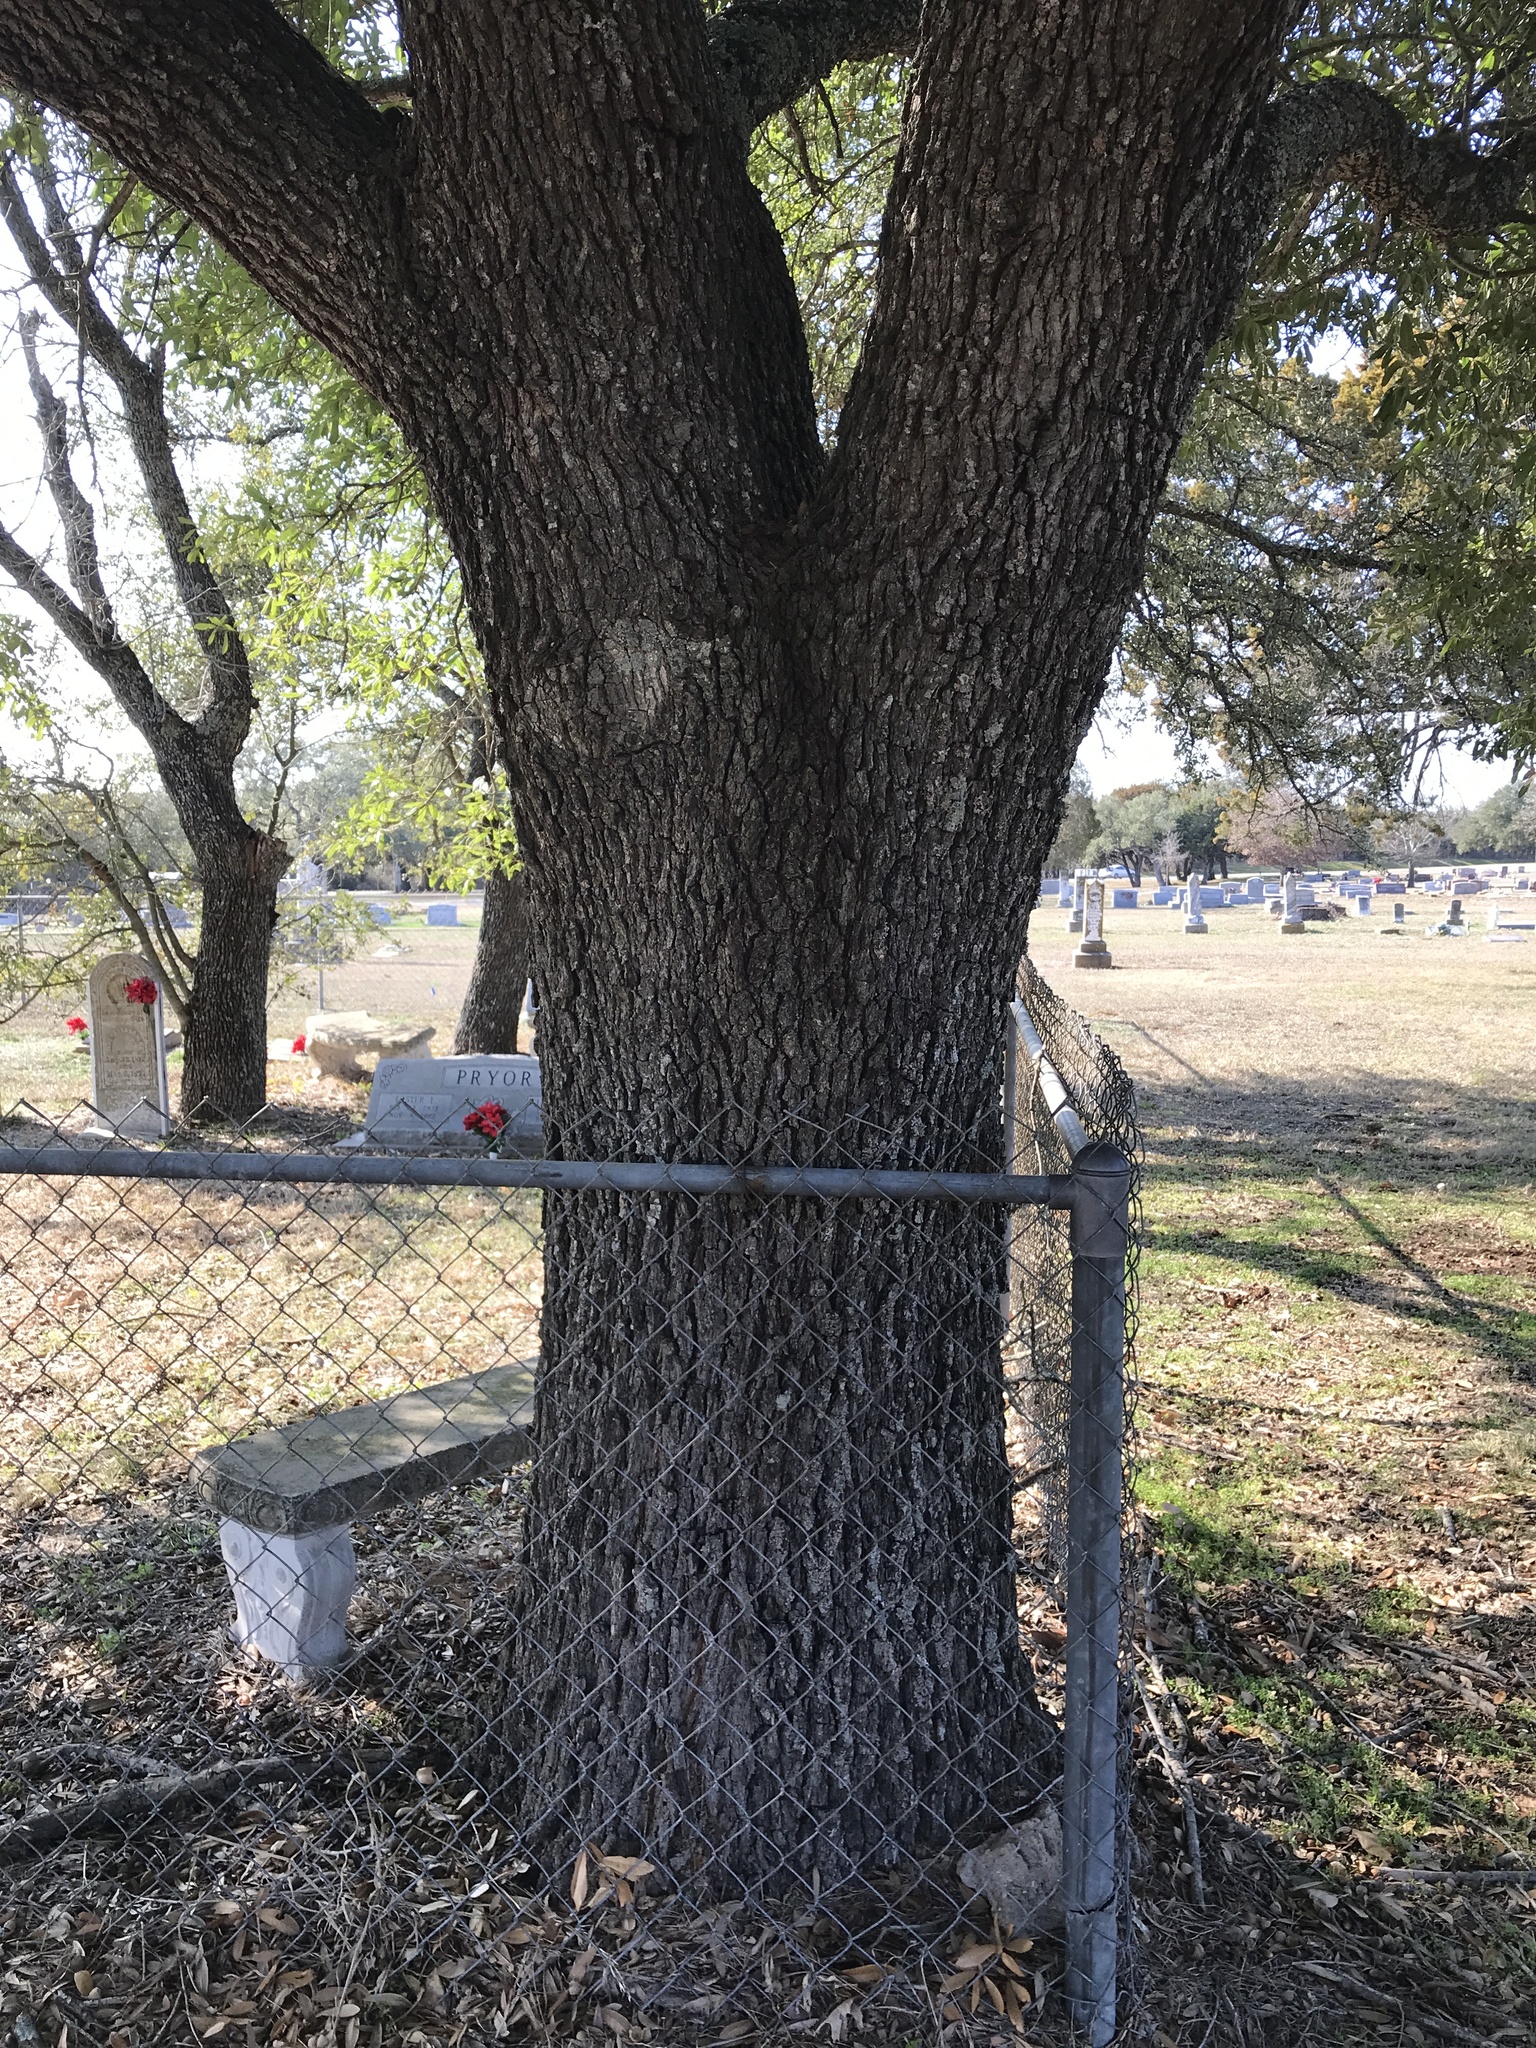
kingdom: Plantae
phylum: Tracheophyta
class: Magnoliopsida
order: Fagales
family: Fagaceae
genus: Quercus
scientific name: Quercus virginiana
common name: Southern live oak
